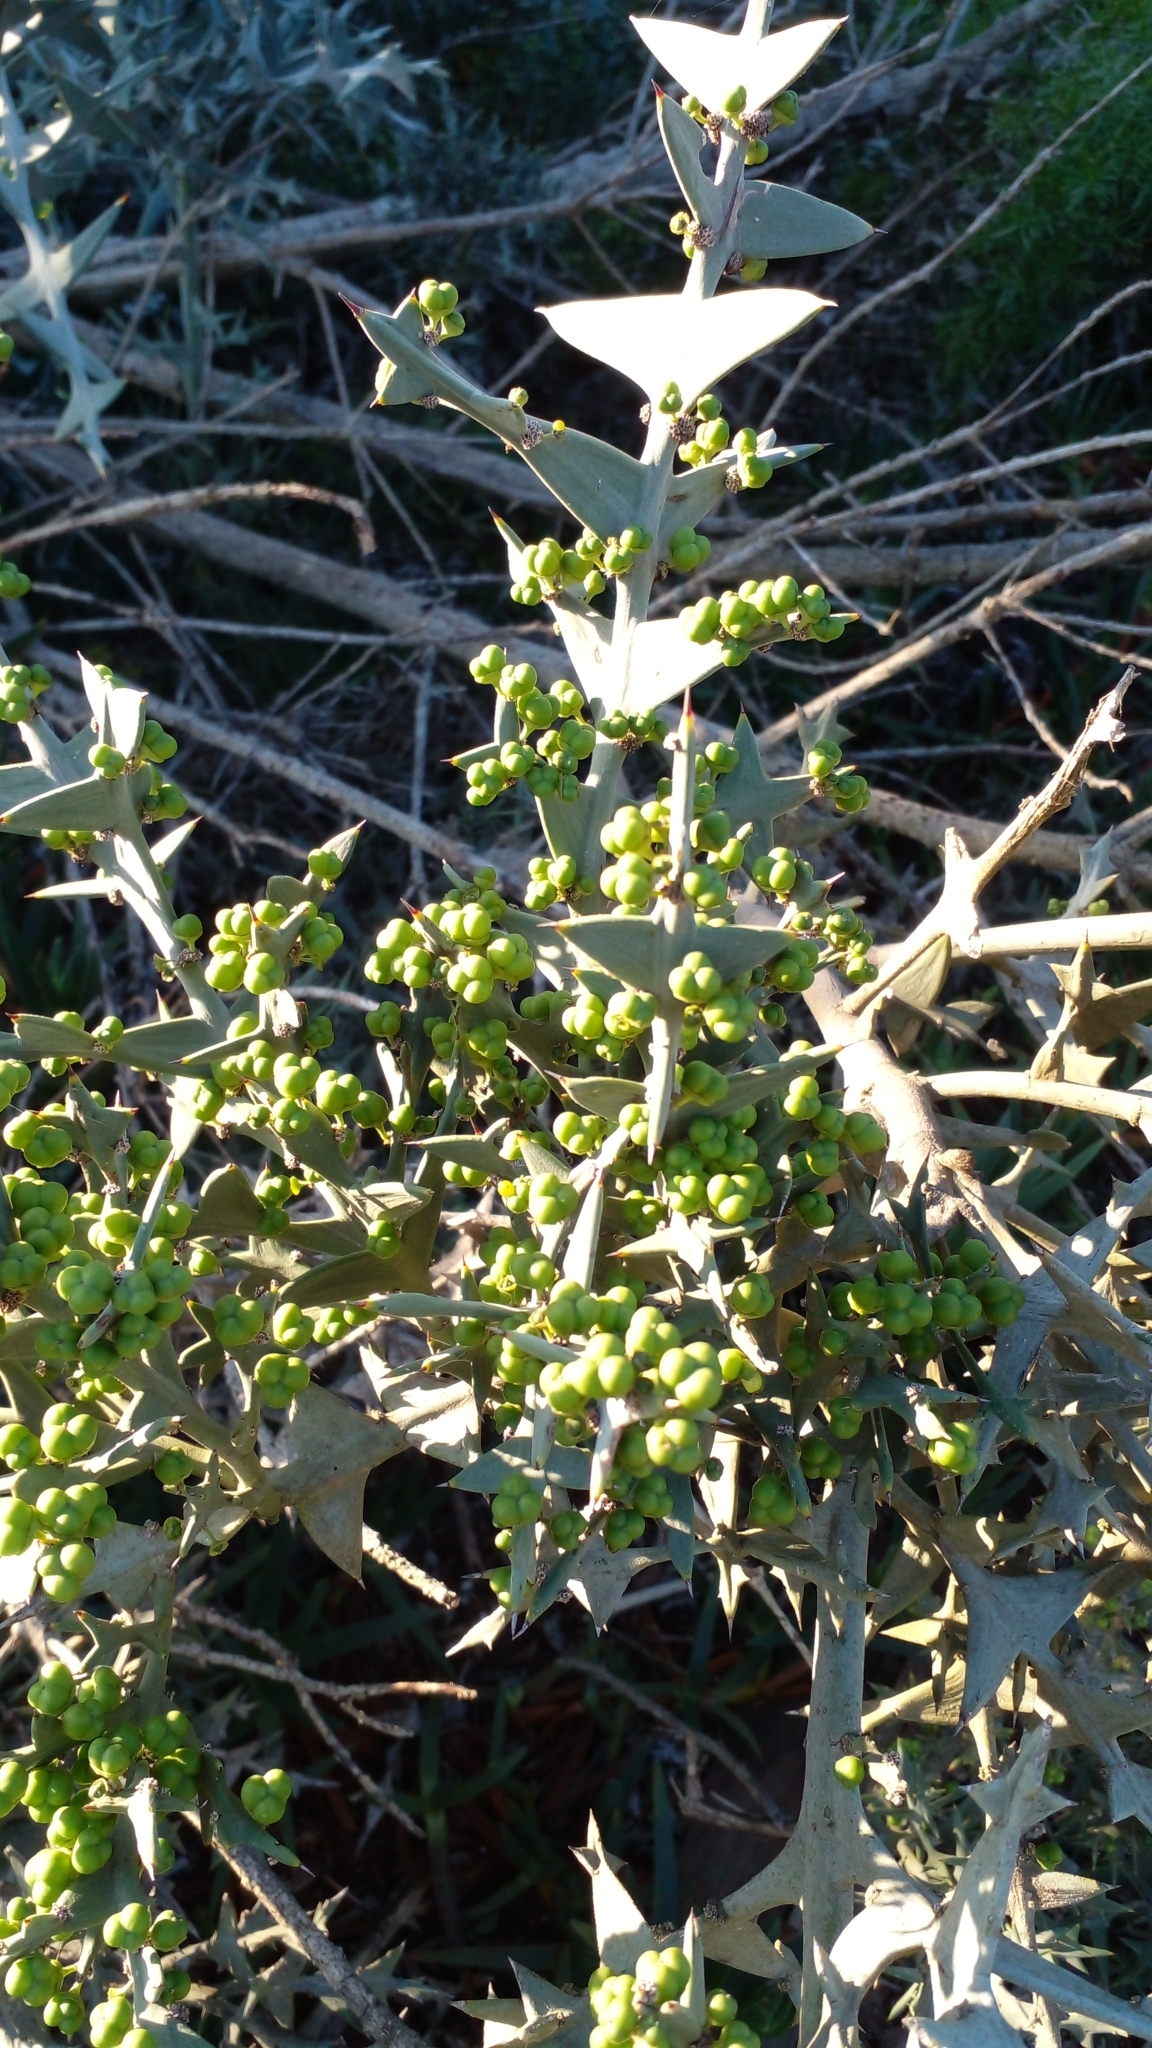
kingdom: Plantae
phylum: Tracheophyta
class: Magnoliopsida
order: Rosales
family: Rhamnaceae
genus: Colletia
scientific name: Colletia paradoxa
